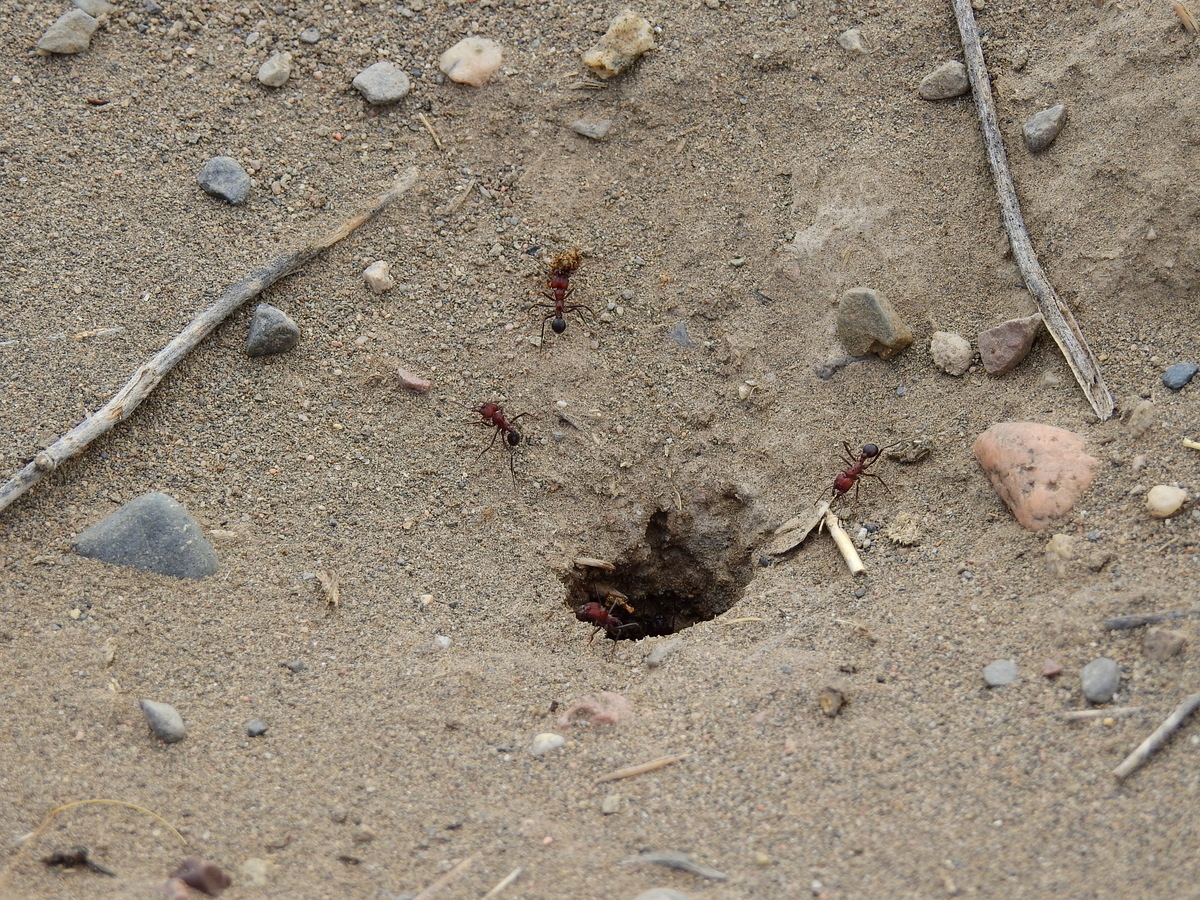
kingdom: Animalia
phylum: Arthropoda
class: Insecta
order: Hymenoptera
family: Formicidae
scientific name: Formicidae
